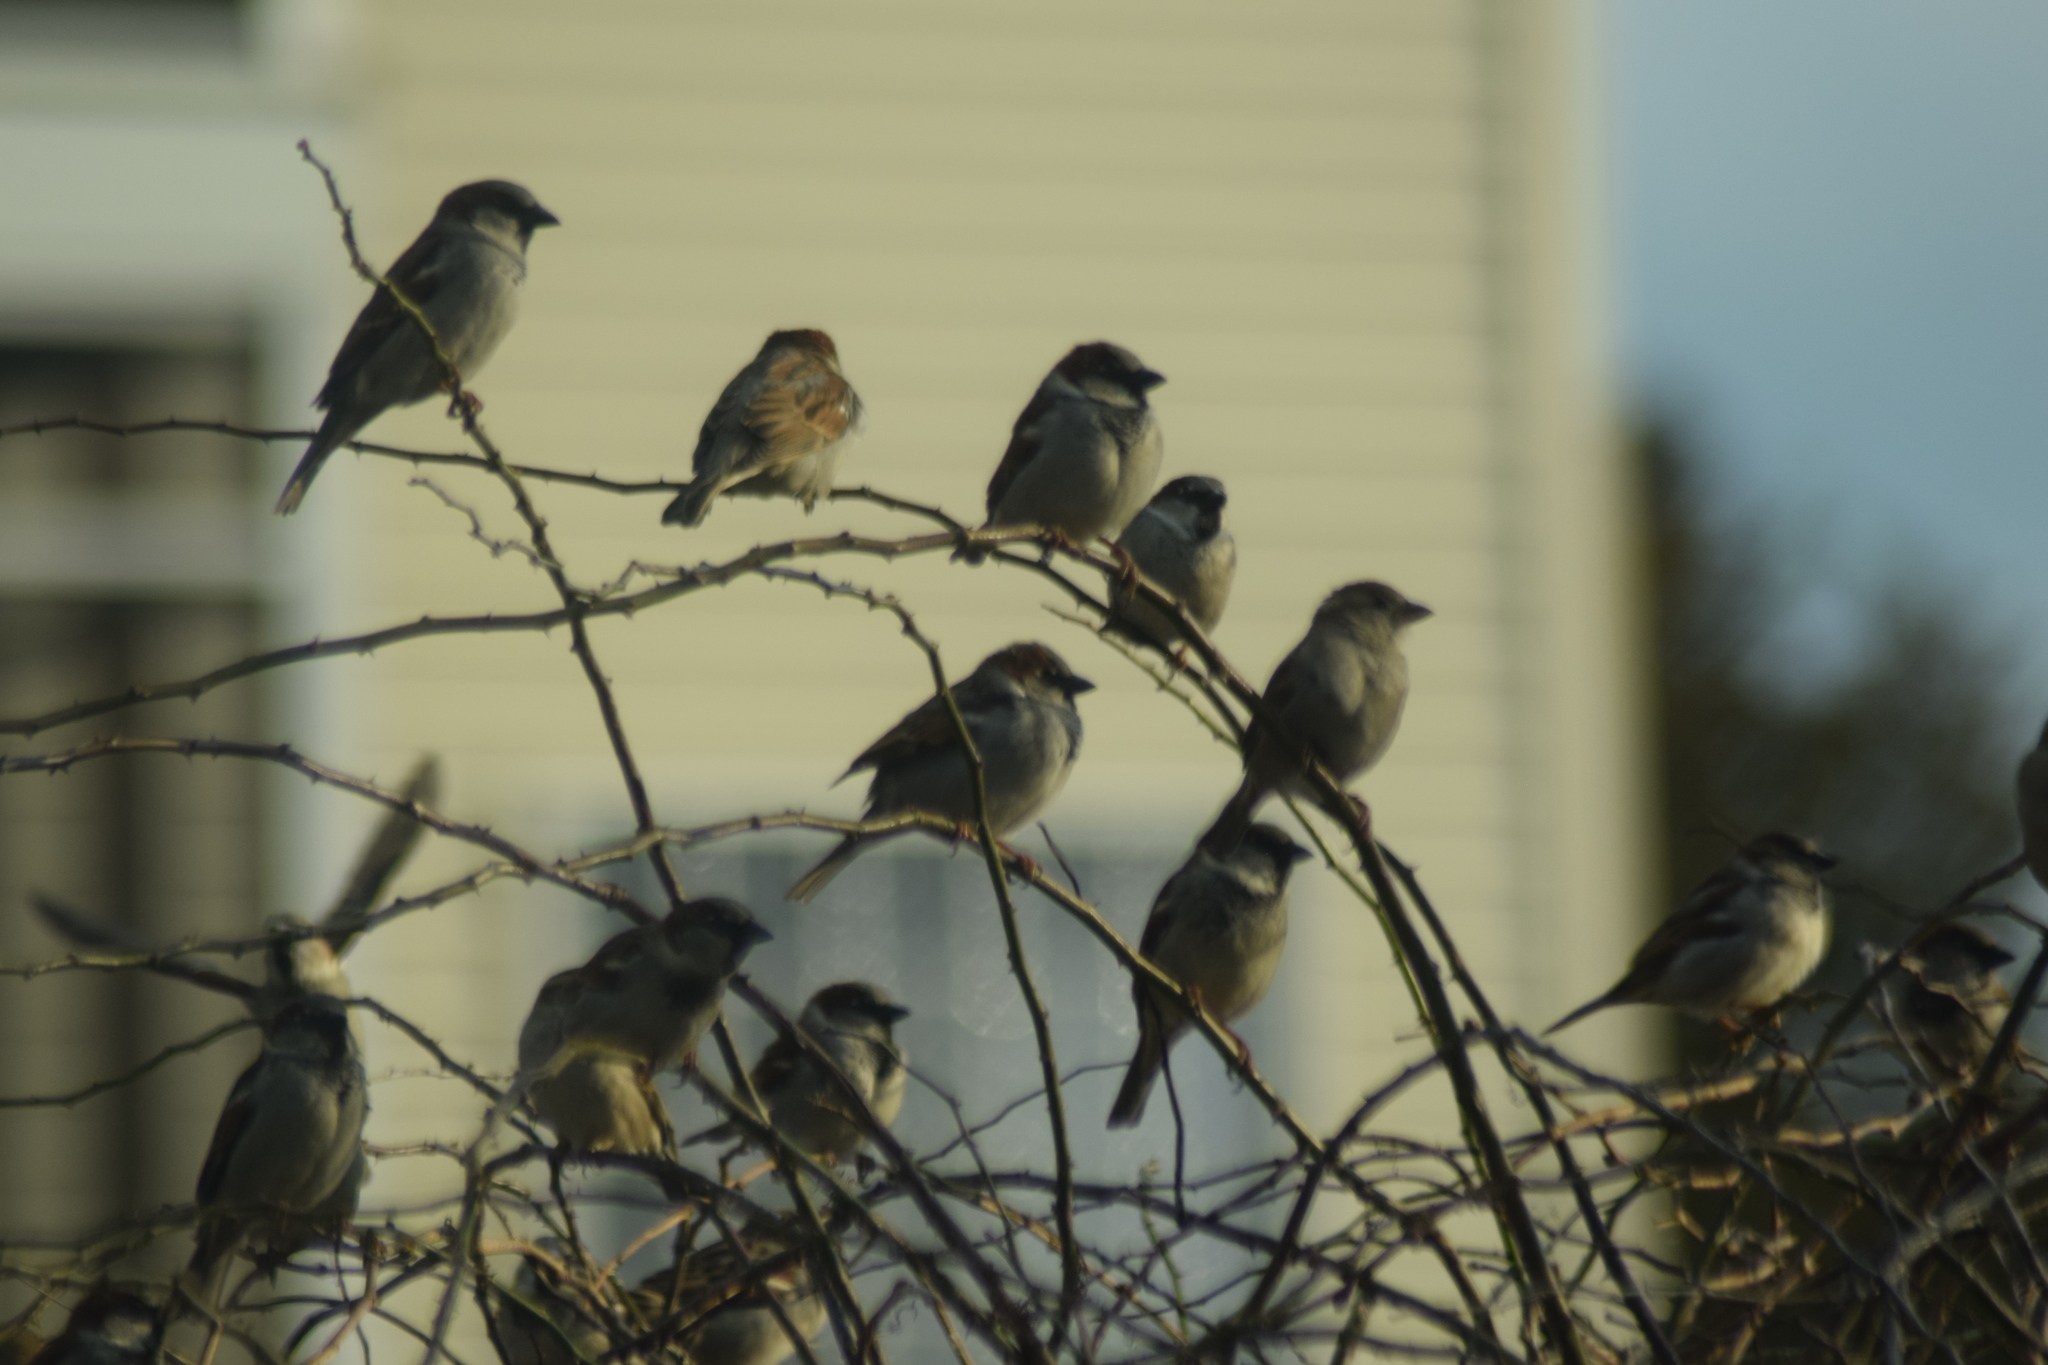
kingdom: Animalia
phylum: Chordata
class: Aves
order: Passeriformes
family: Passeridae
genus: Passer
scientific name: Passer domesticus
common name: House sparrow
